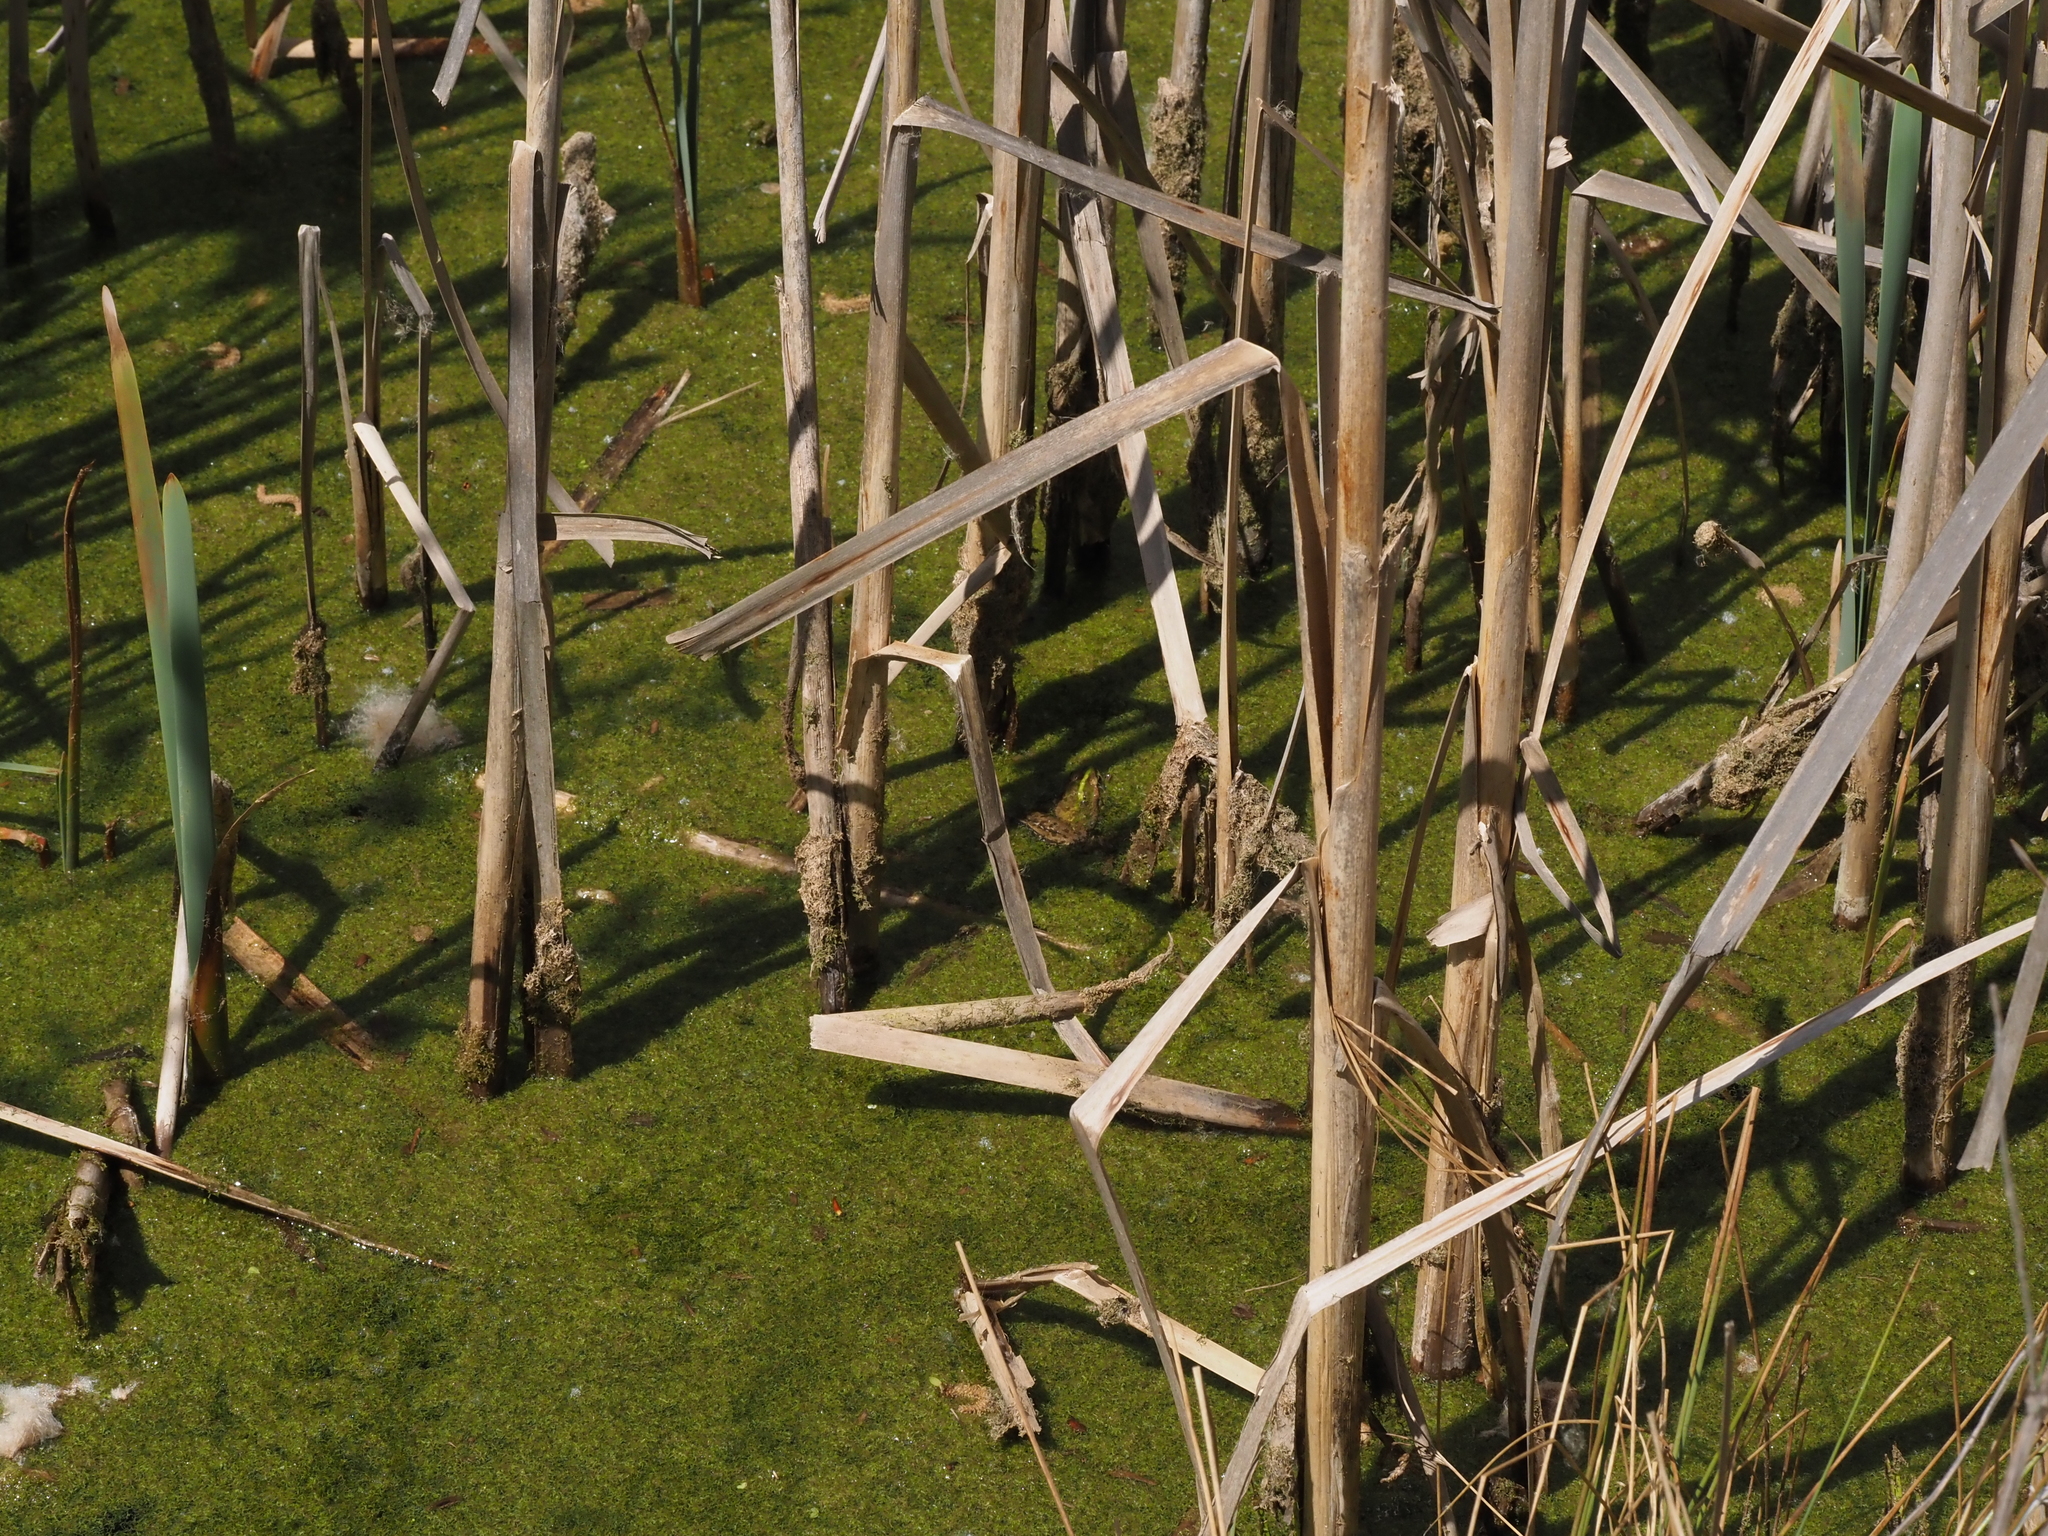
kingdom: Animalia
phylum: Chordata
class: Amphibia
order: Anura
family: Ranidae
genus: Pelophylax
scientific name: Pelophylax ridibundus
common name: Marsh frog
